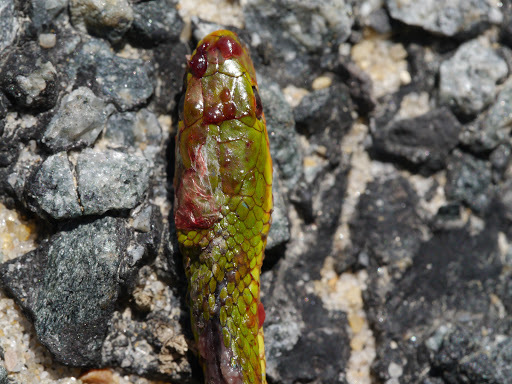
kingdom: Animalia
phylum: Chordata
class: Squamata
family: Colubridae
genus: Opheodrys
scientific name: Opheodrys aestivus
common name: Rough greensnake
